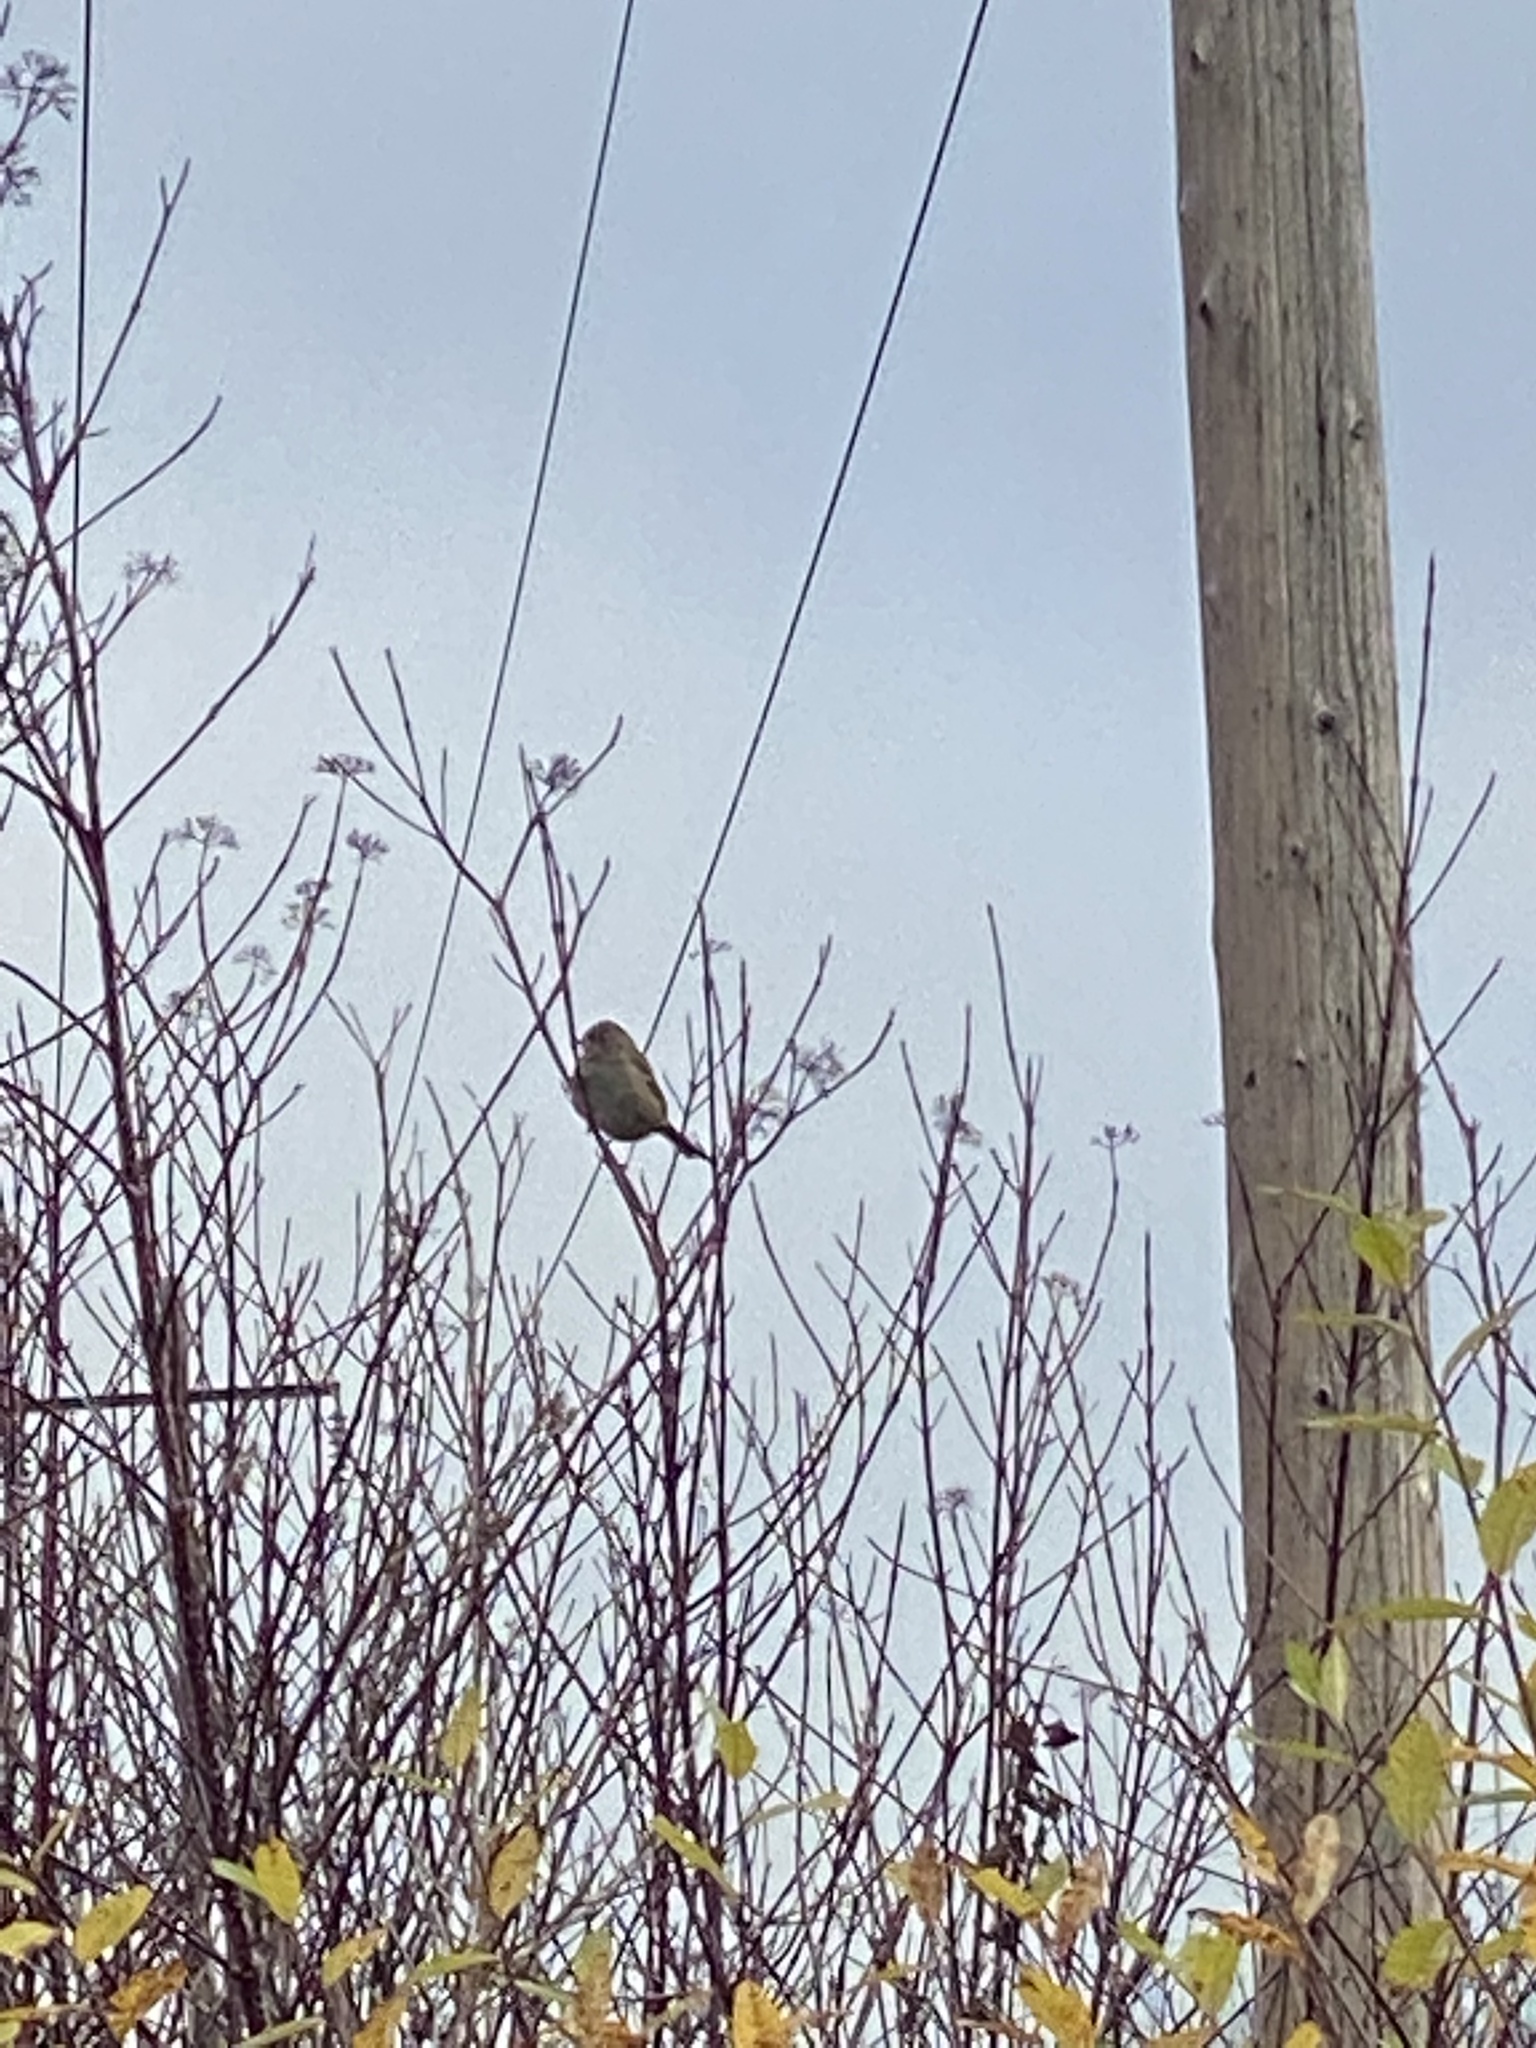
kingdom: Animalia
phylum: Chordata
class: Aves
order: Passeriformes
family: Passerellidae
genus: Zonotrichia
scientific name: Zonotrichia atricapilla
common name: Golden-crowned sparrow
